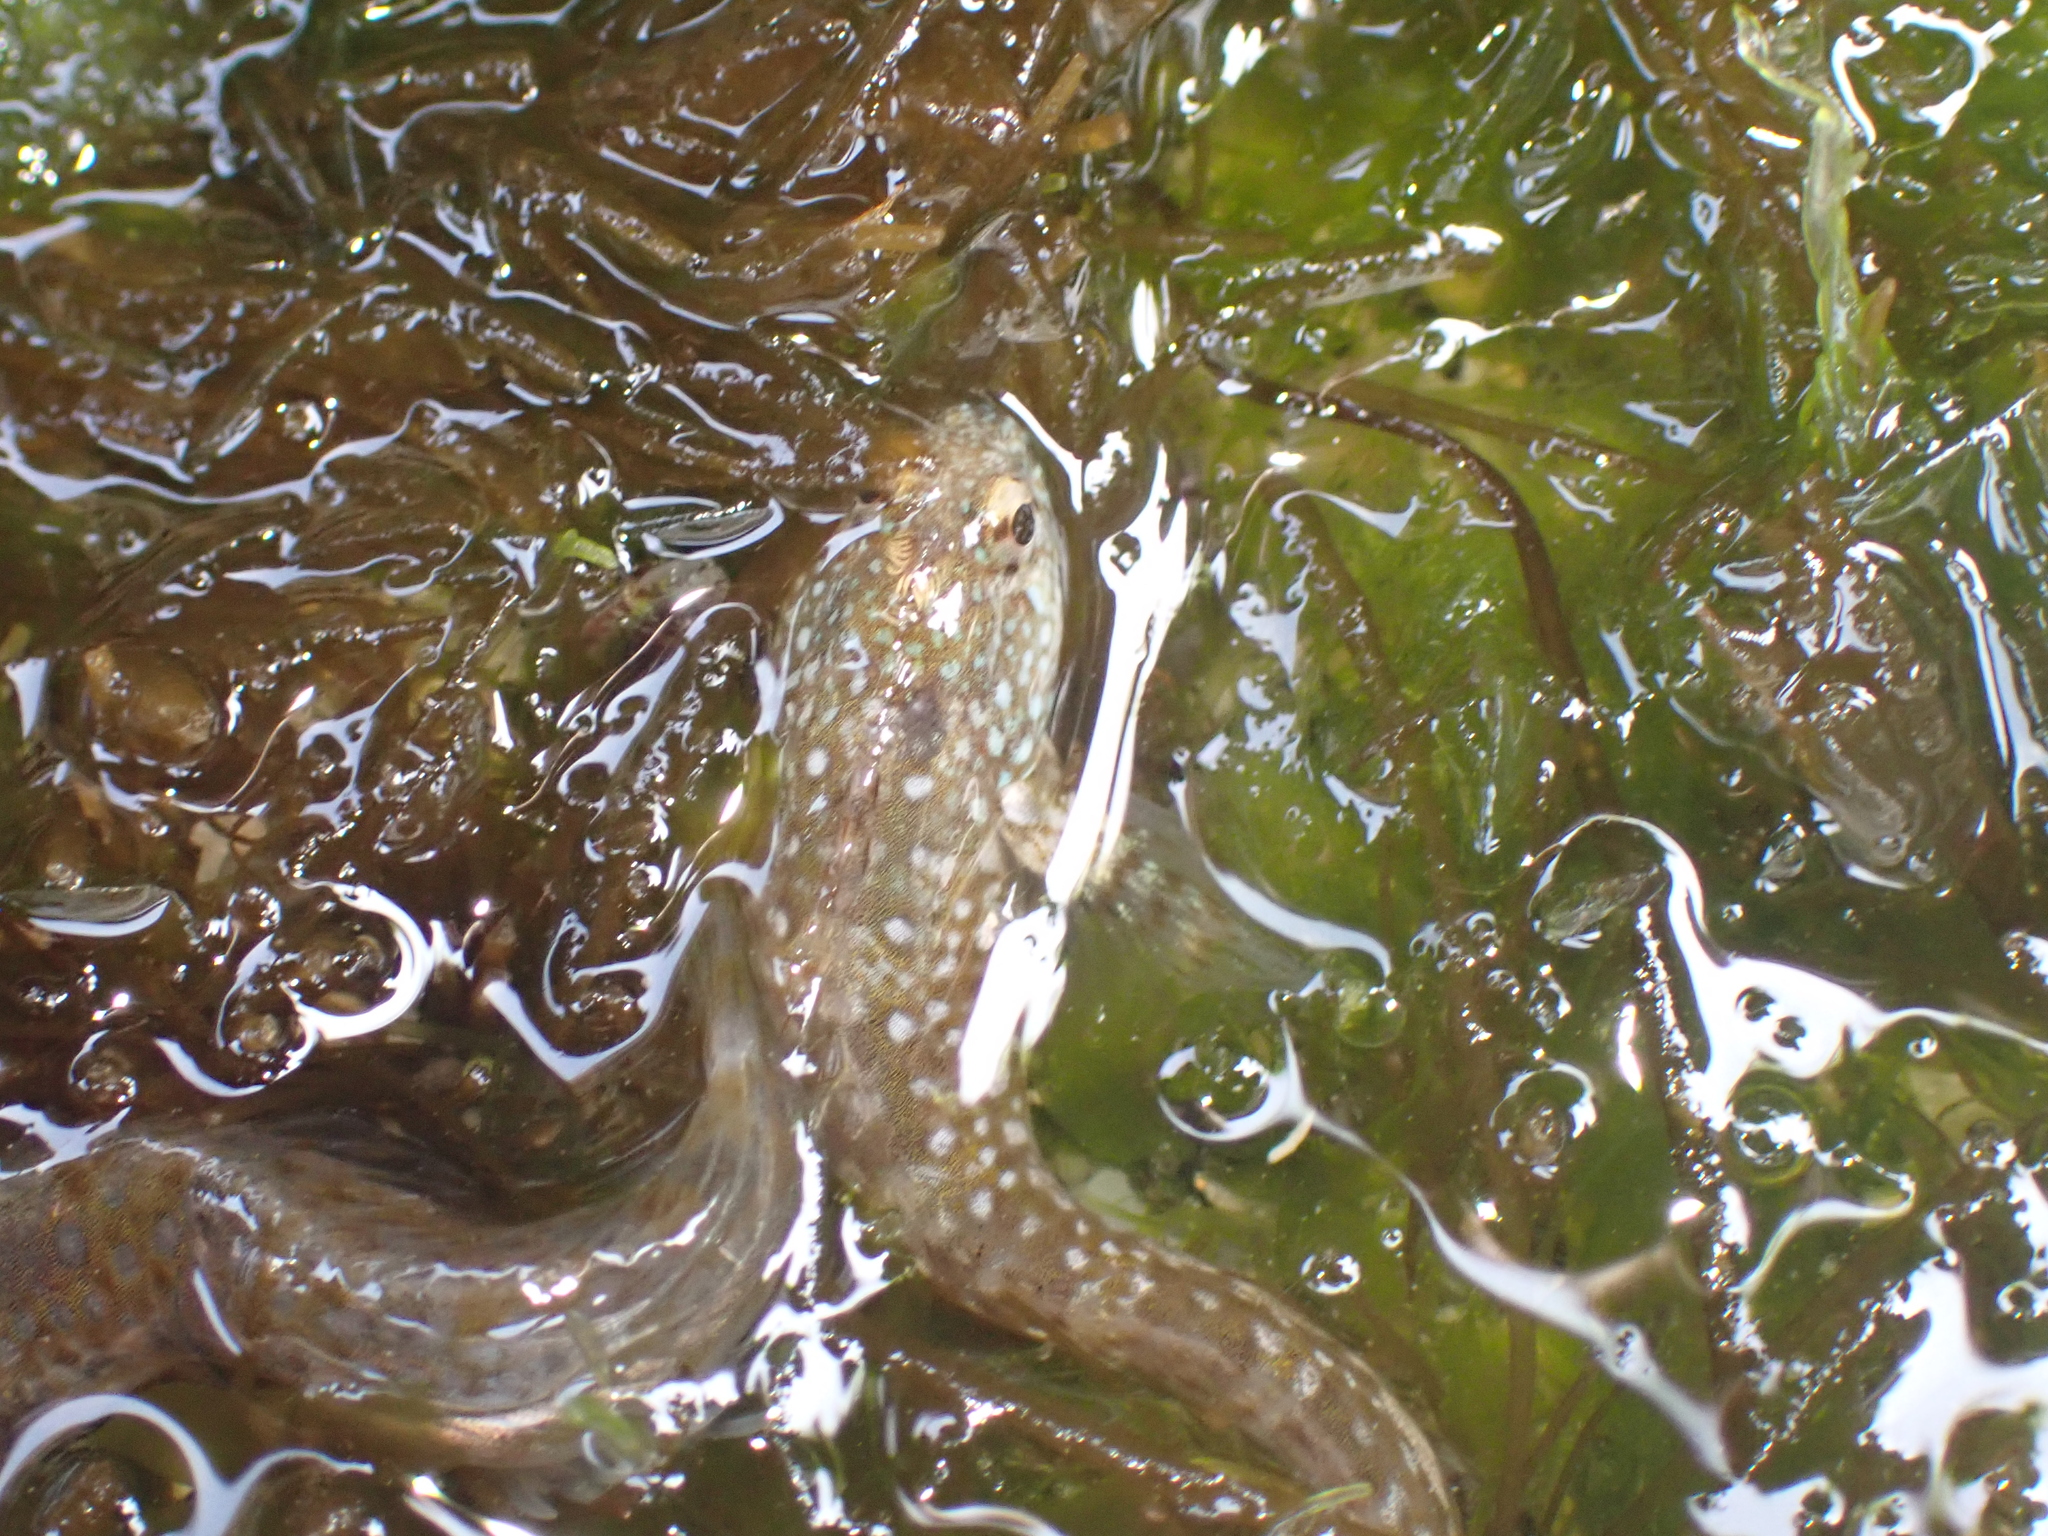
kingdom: Animalia
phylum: Chordata
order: Perciformes
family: Blenniidae
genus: Coryphoblennius
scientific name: Coryphoblennius galerita
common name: Montagu's blenny
